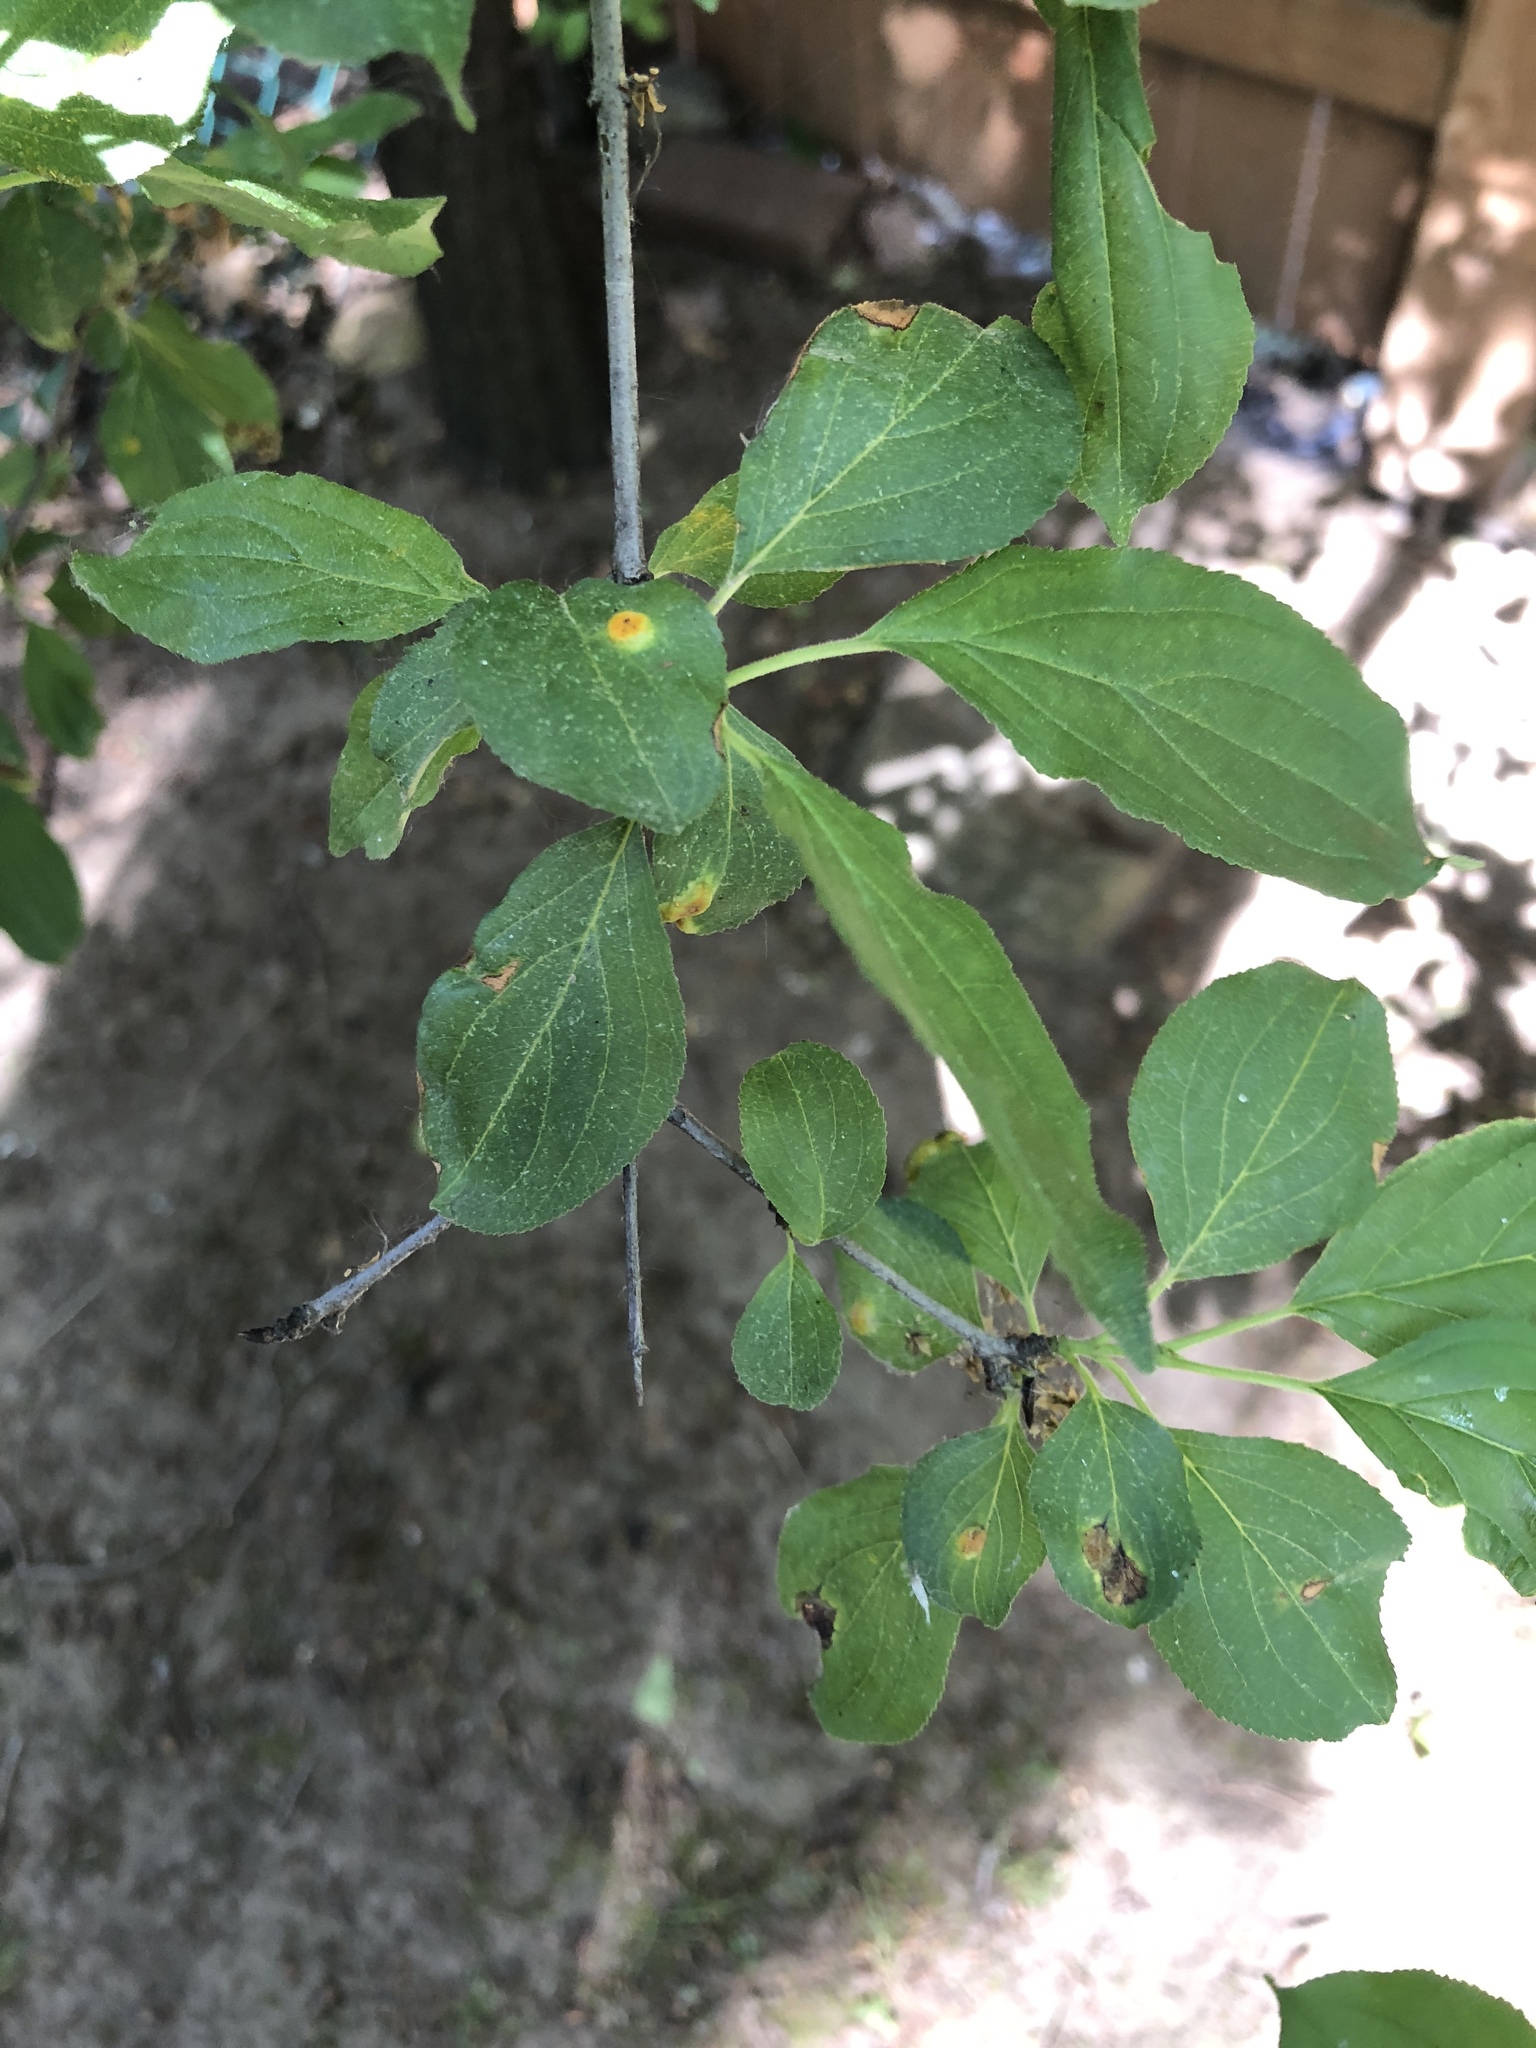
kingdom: Plantae
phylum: Tracheophyta
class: Magnoliopsida
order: Rosales
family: Rhamnaceae
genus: Rhamnus
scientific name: Rhamnus cathartica
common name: Common buckthorn
